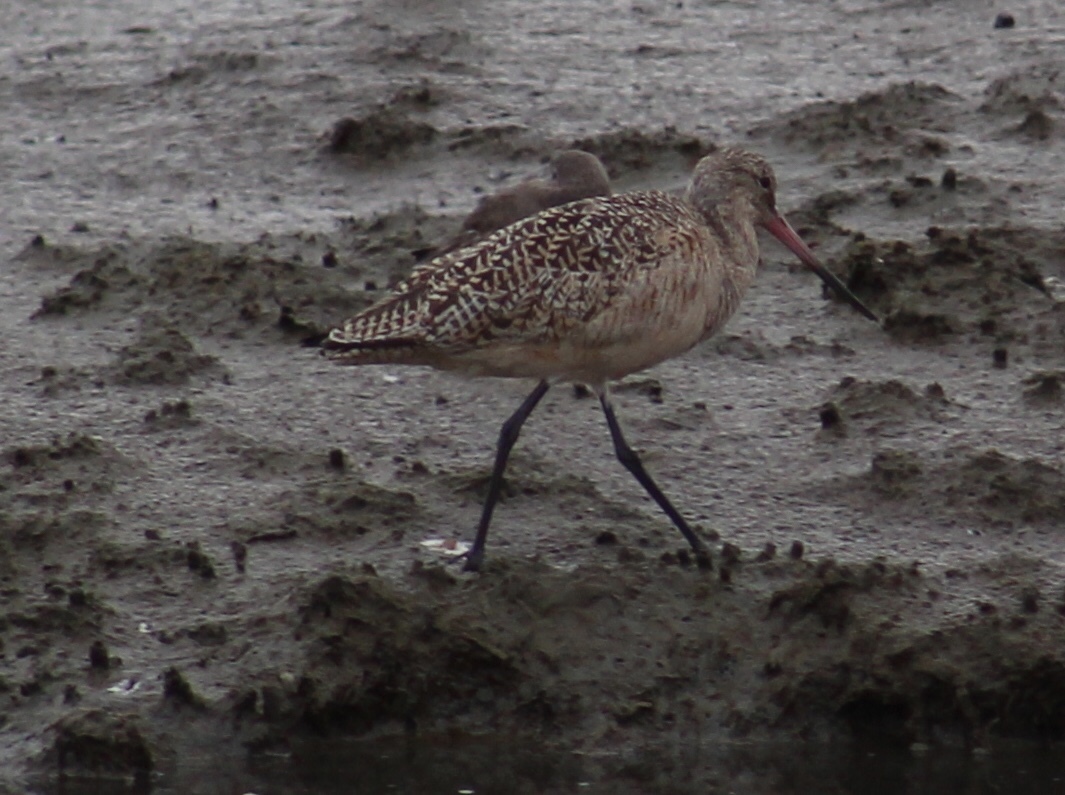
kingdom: Animalia
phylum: Chordata
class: Aves
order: Charadriiformes
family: Scolopacidae
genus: Limosa
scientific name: Limosa fedoa
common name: Marbled godwit
